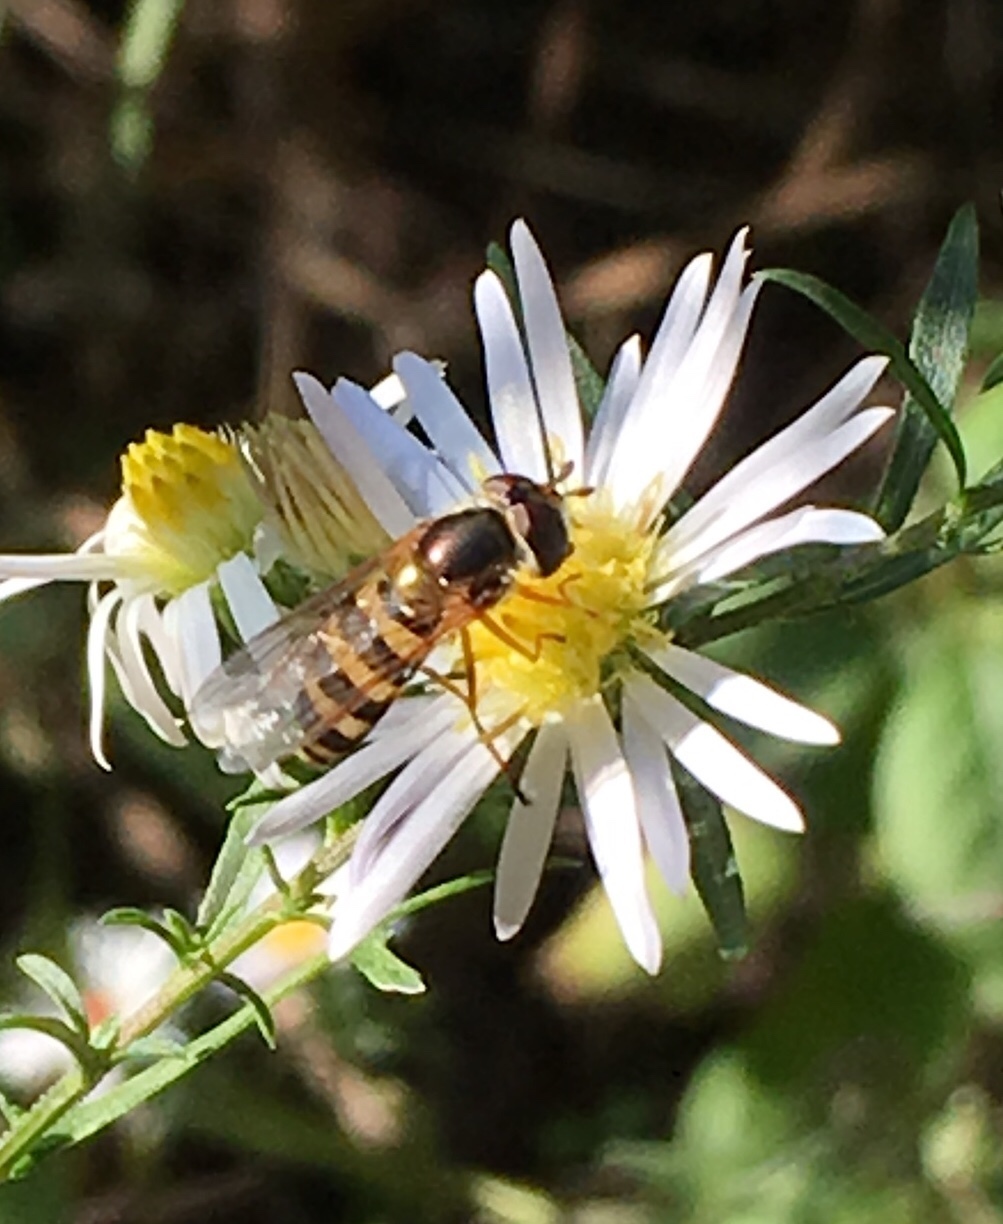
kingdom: Animalia
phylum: Arthropoda
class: Insecta
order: Diptera
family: Syrphidae
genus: Eupeodes
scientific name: Eupeodes
